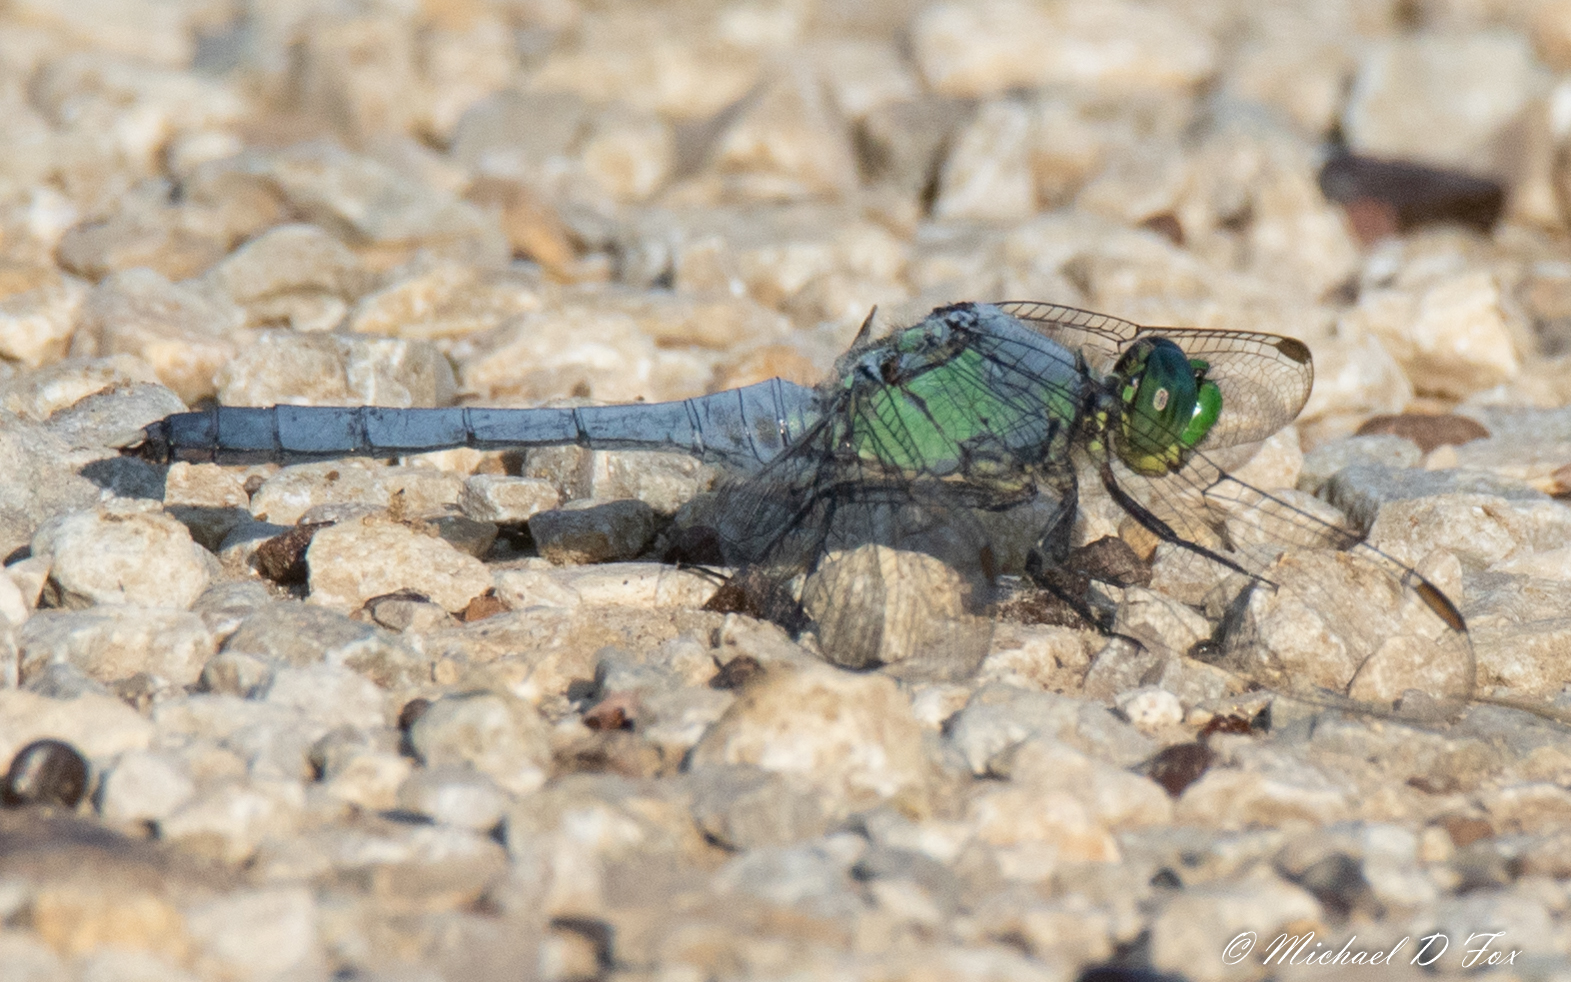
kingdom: Animalia
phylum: Arthropoda
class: Insecta
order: Odonata
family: Libellulidae
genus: Erythemis
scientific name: Erythemis simplicicollis
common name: Eastern pondhawk
